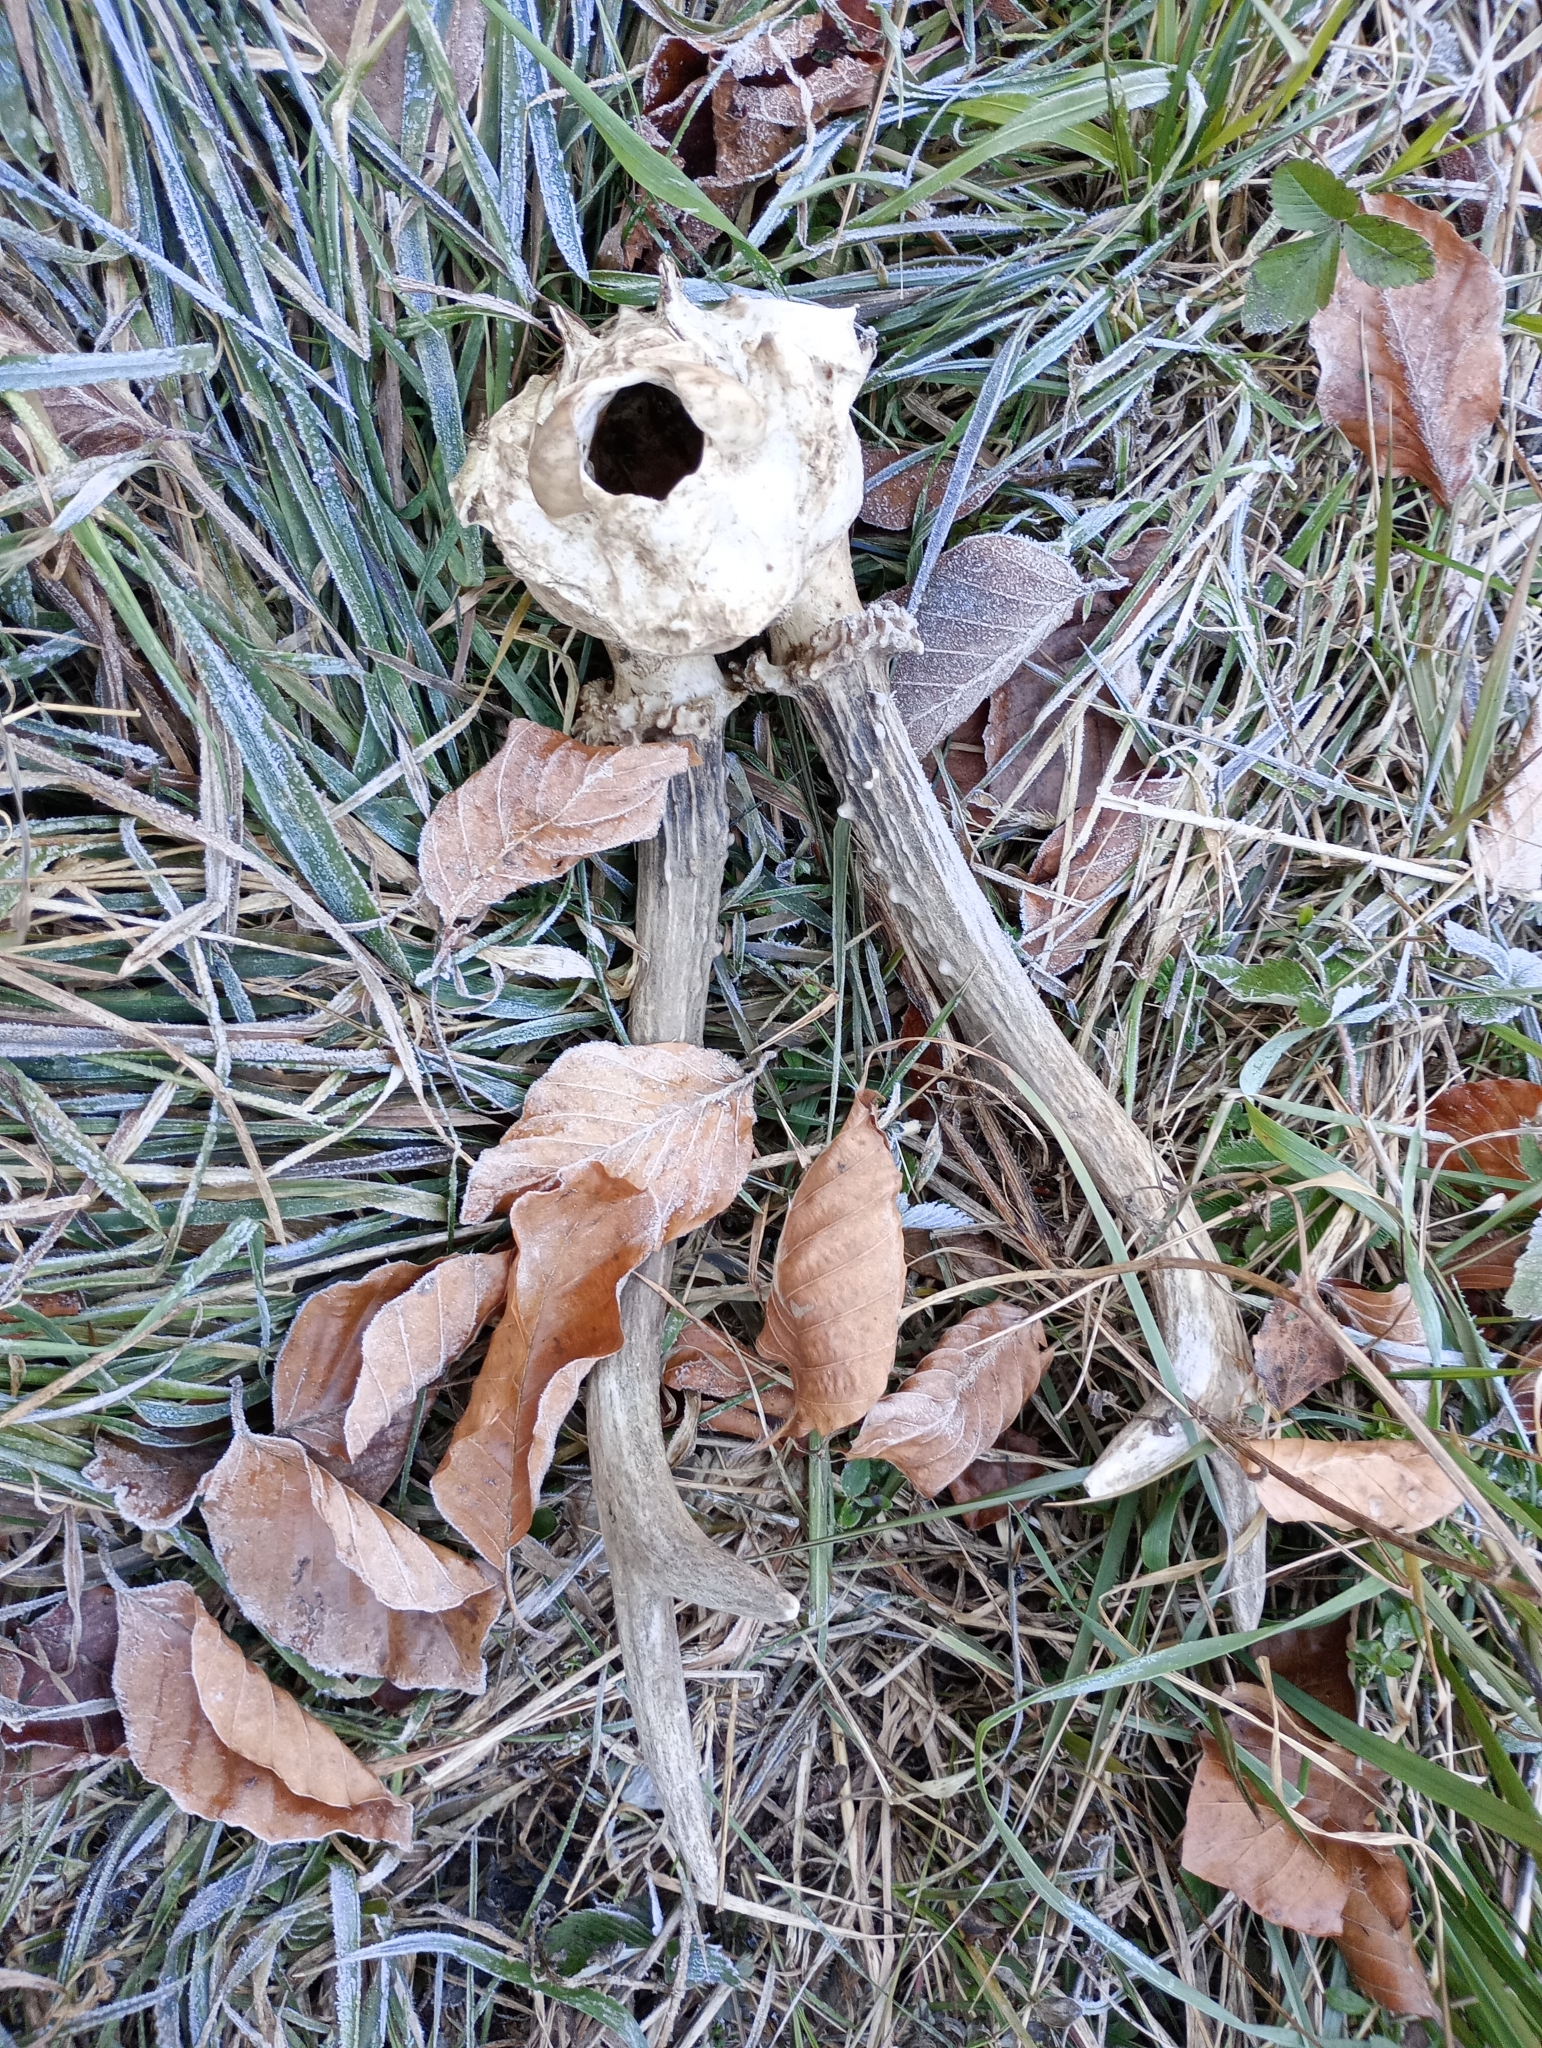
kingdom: Animalia
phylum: Chordata
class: Mammalia
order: Artiodactyla
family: Cervidae
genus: Capreolus
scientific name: Capreolus capreolus
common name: Western roe deer
